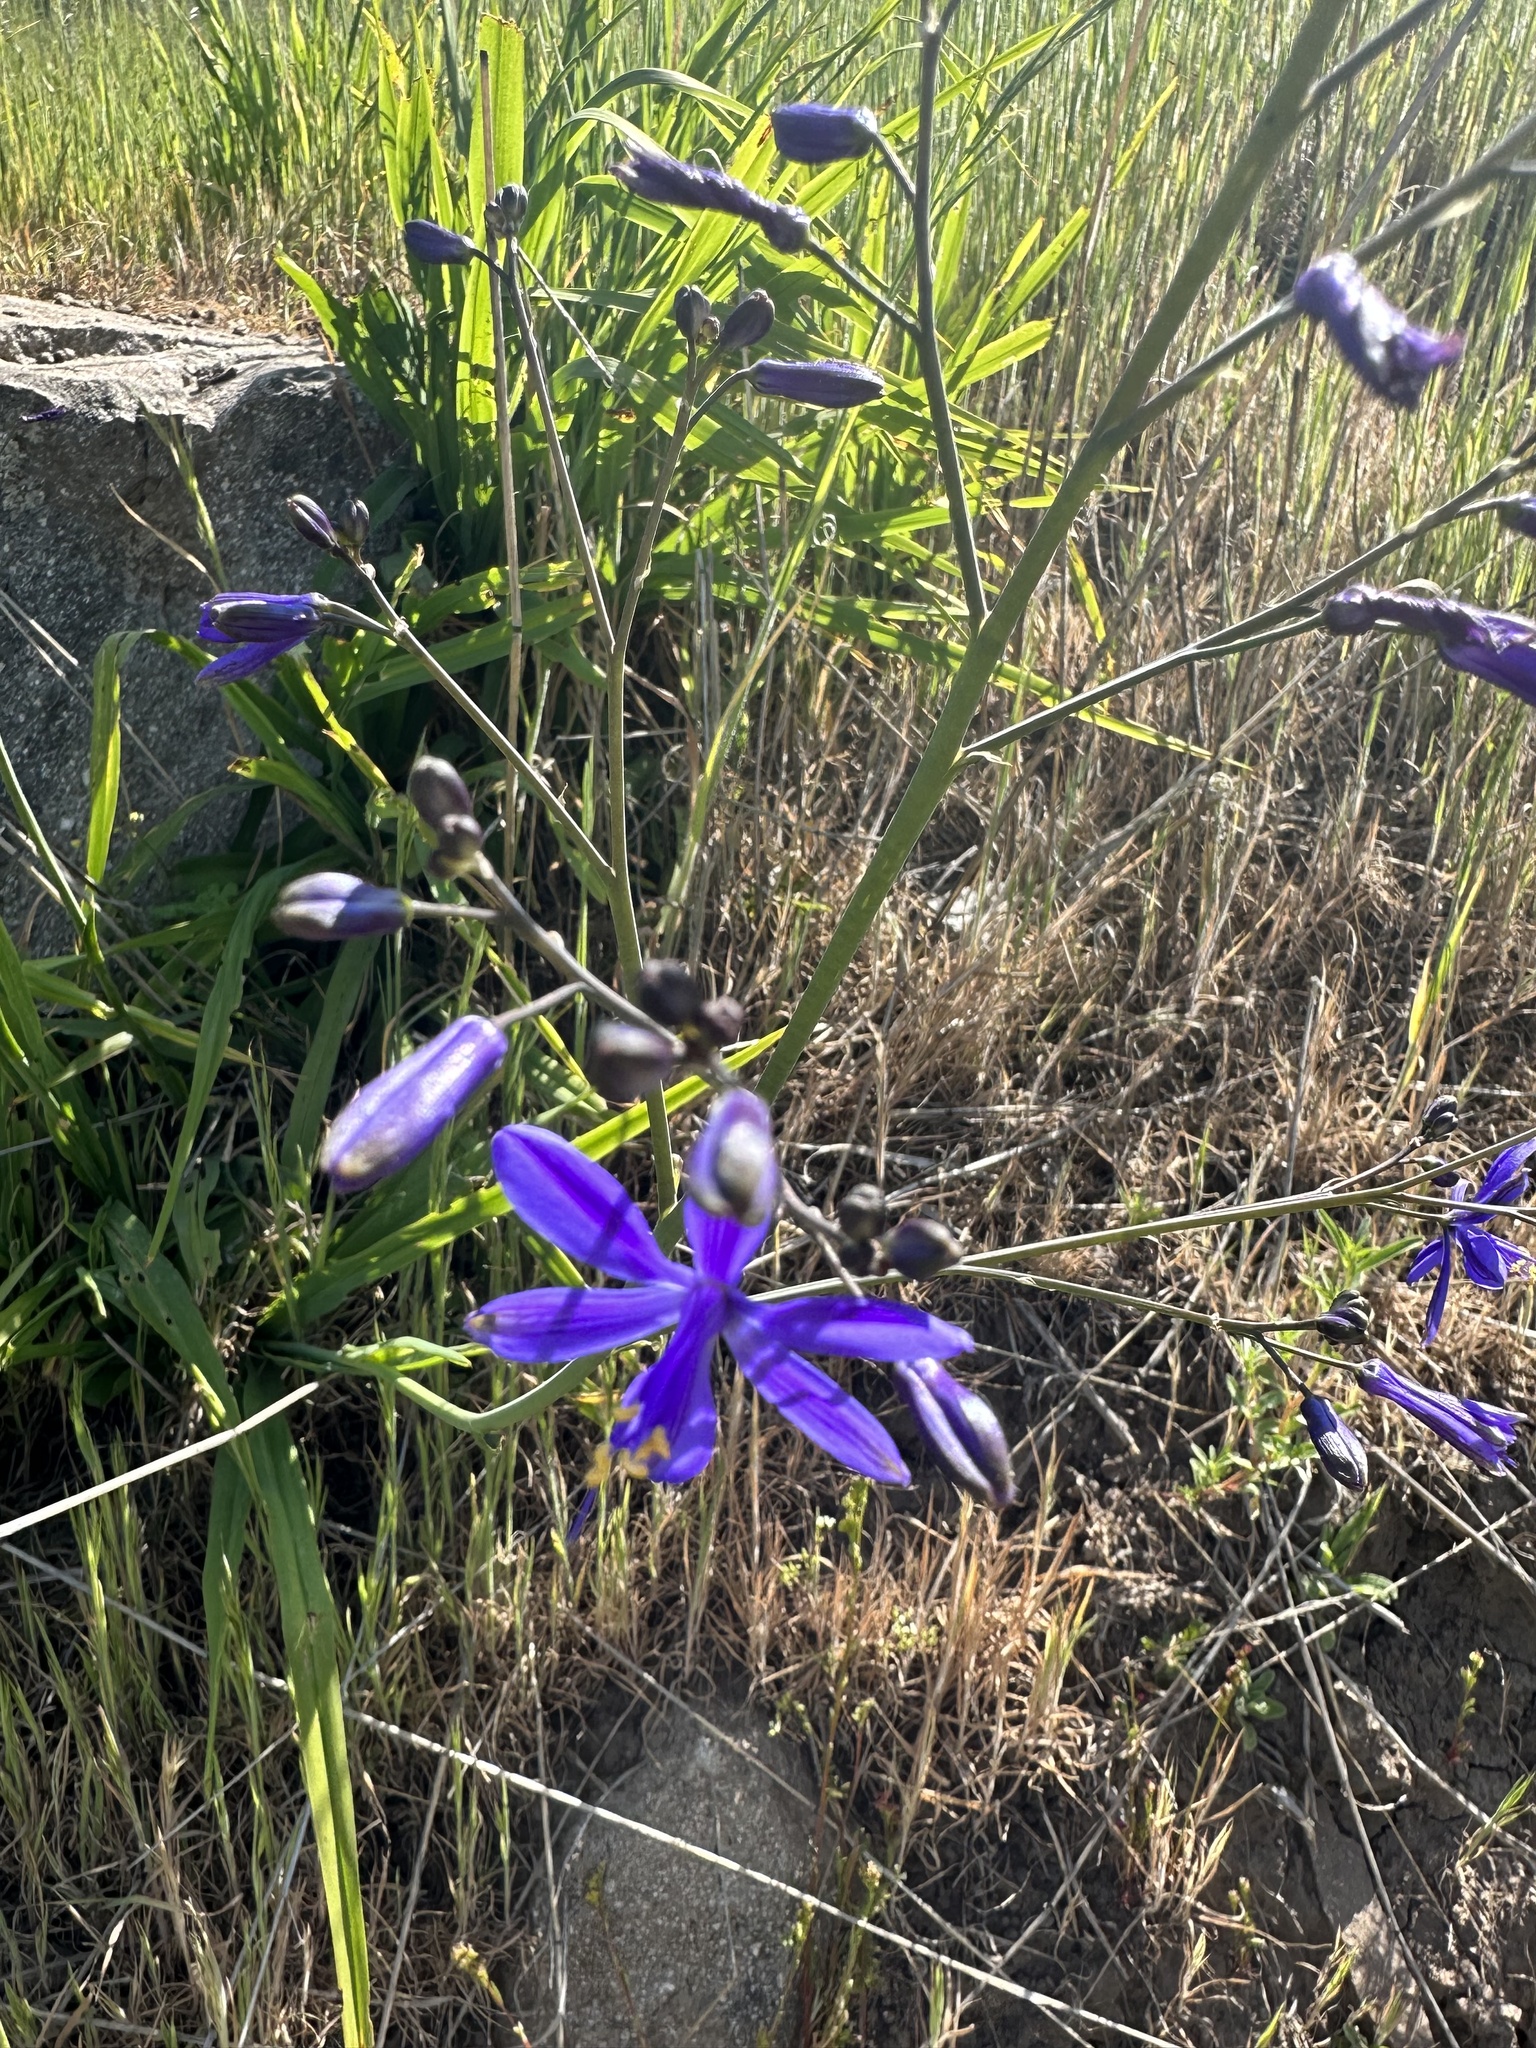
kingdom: Plantae
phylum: Tracheophyta
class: Liliopsida
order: Asparagales
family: Asphodelaceae
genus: Pasithea
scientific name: Pasithea caerulea
